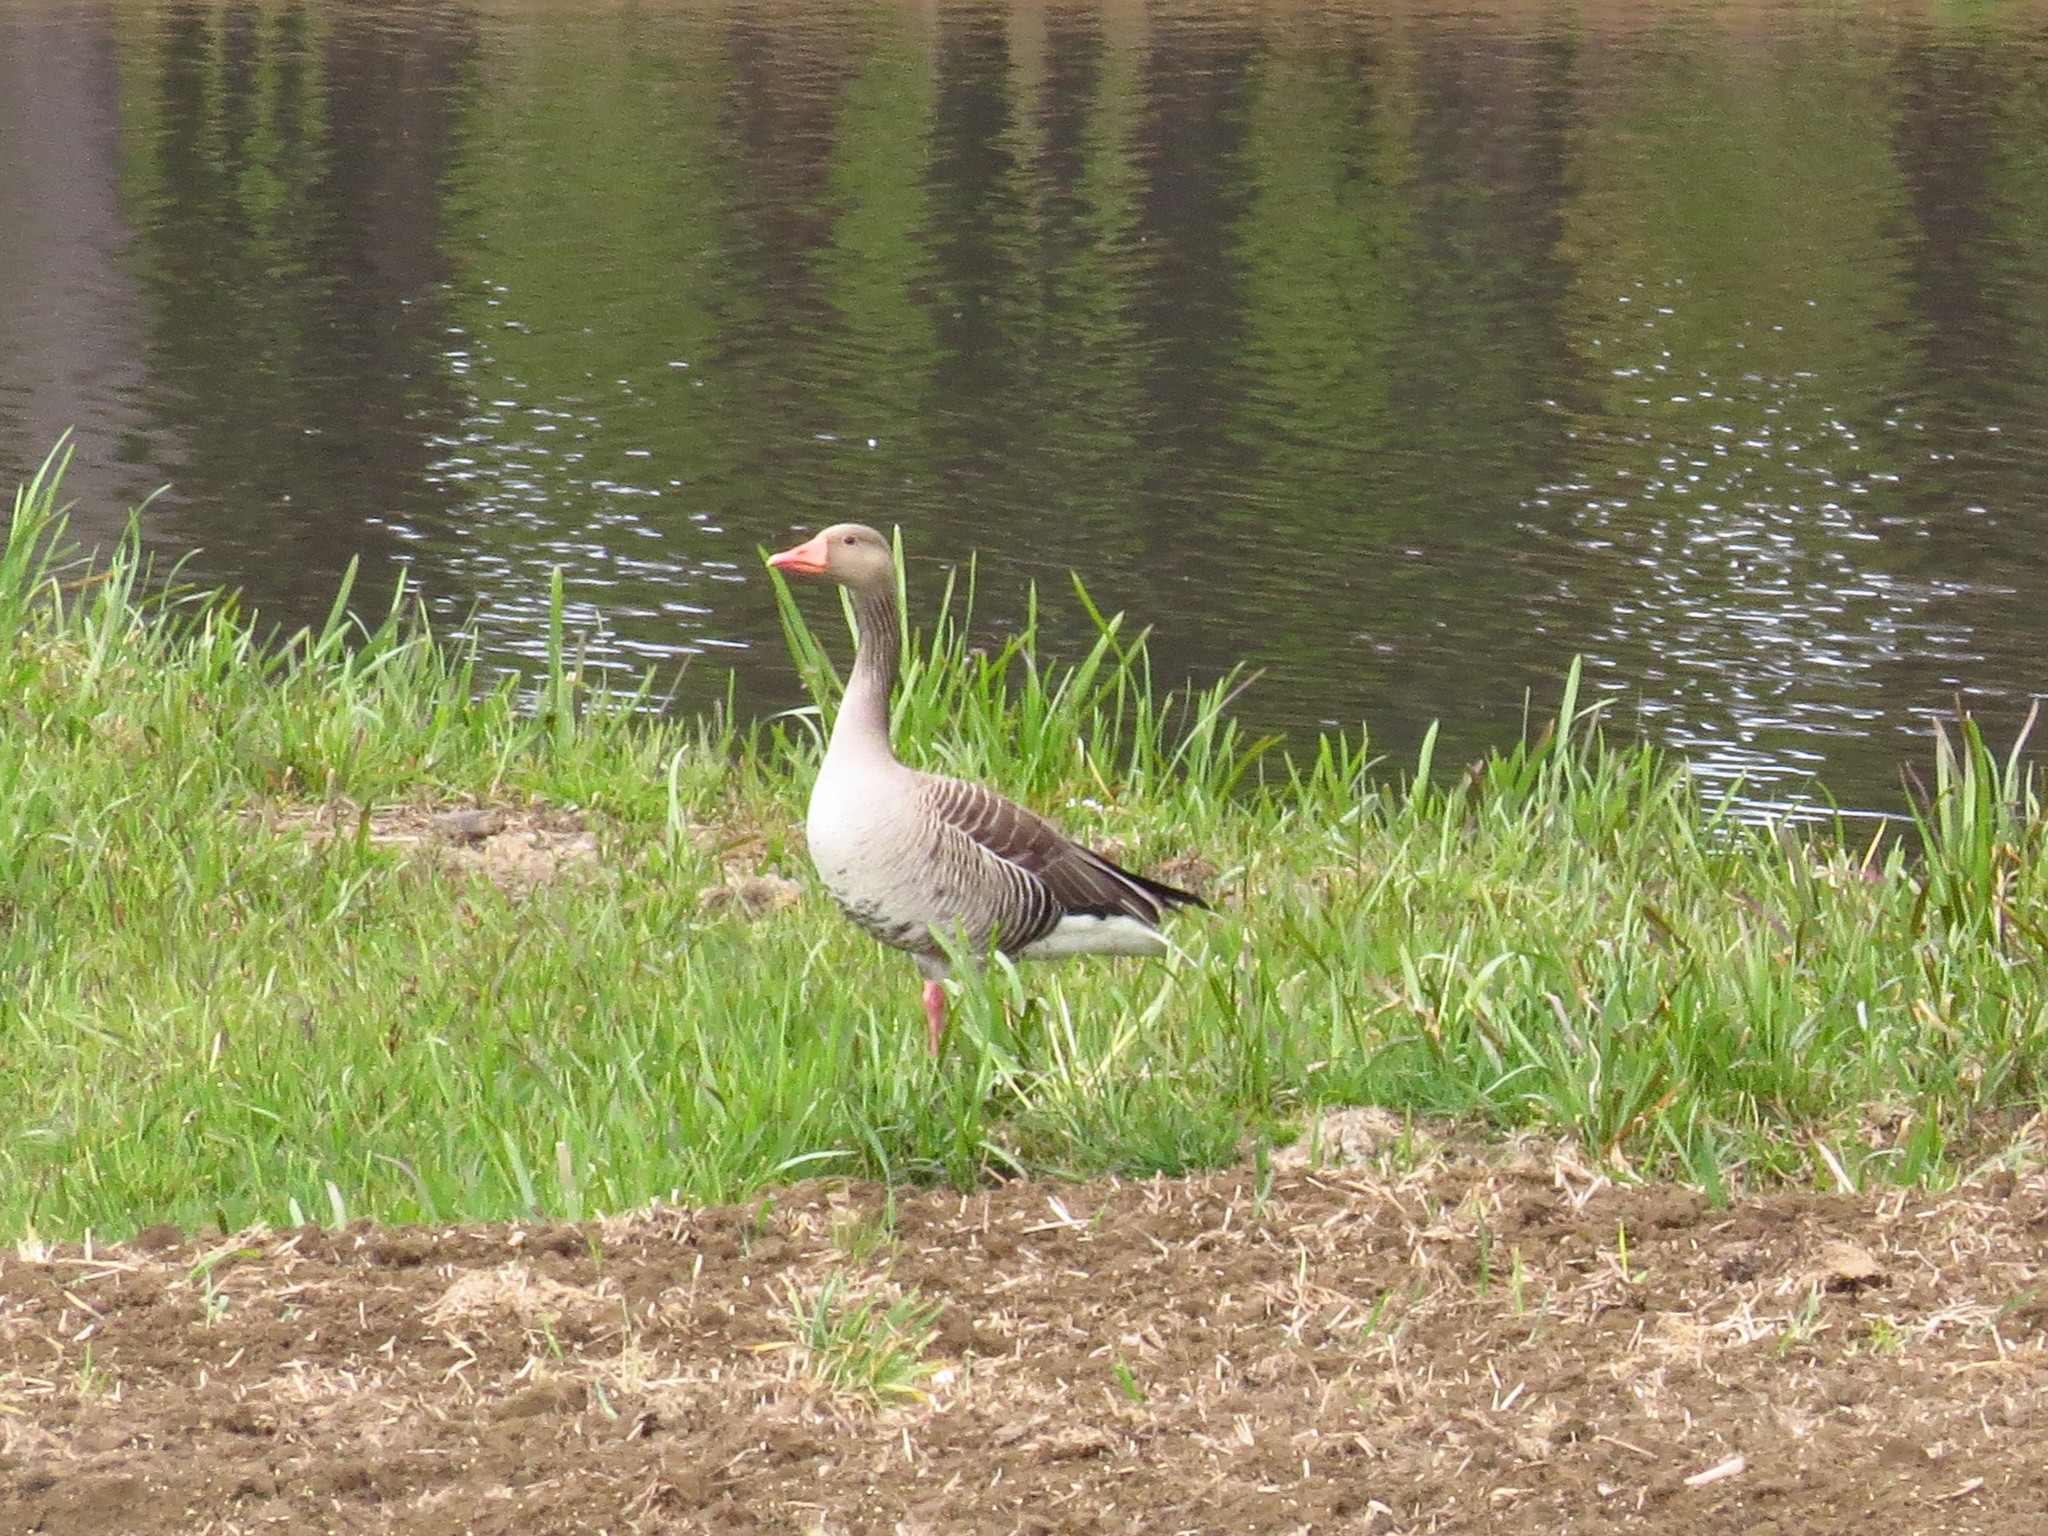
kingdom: Animalia
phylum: Chordata
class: Aves
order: Anseriformes
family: Anatidae
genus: Anser
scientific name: Anser anser
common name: Greylag goose
